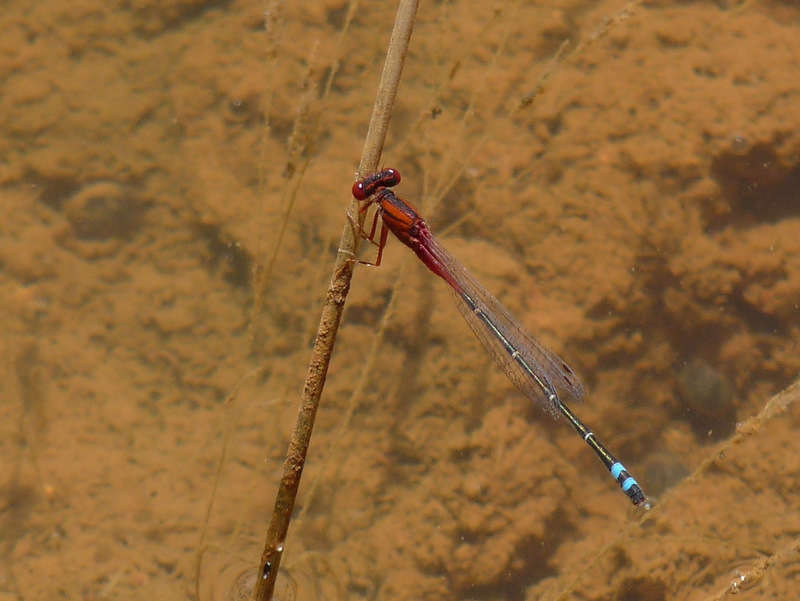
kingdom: Animalia
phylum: Arthropoda
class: Insecta
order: Odonata
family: Coenagrionidae
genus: Xanthagrion
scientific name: Xanthagrion erythroneurum
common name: Red and blue damsel
